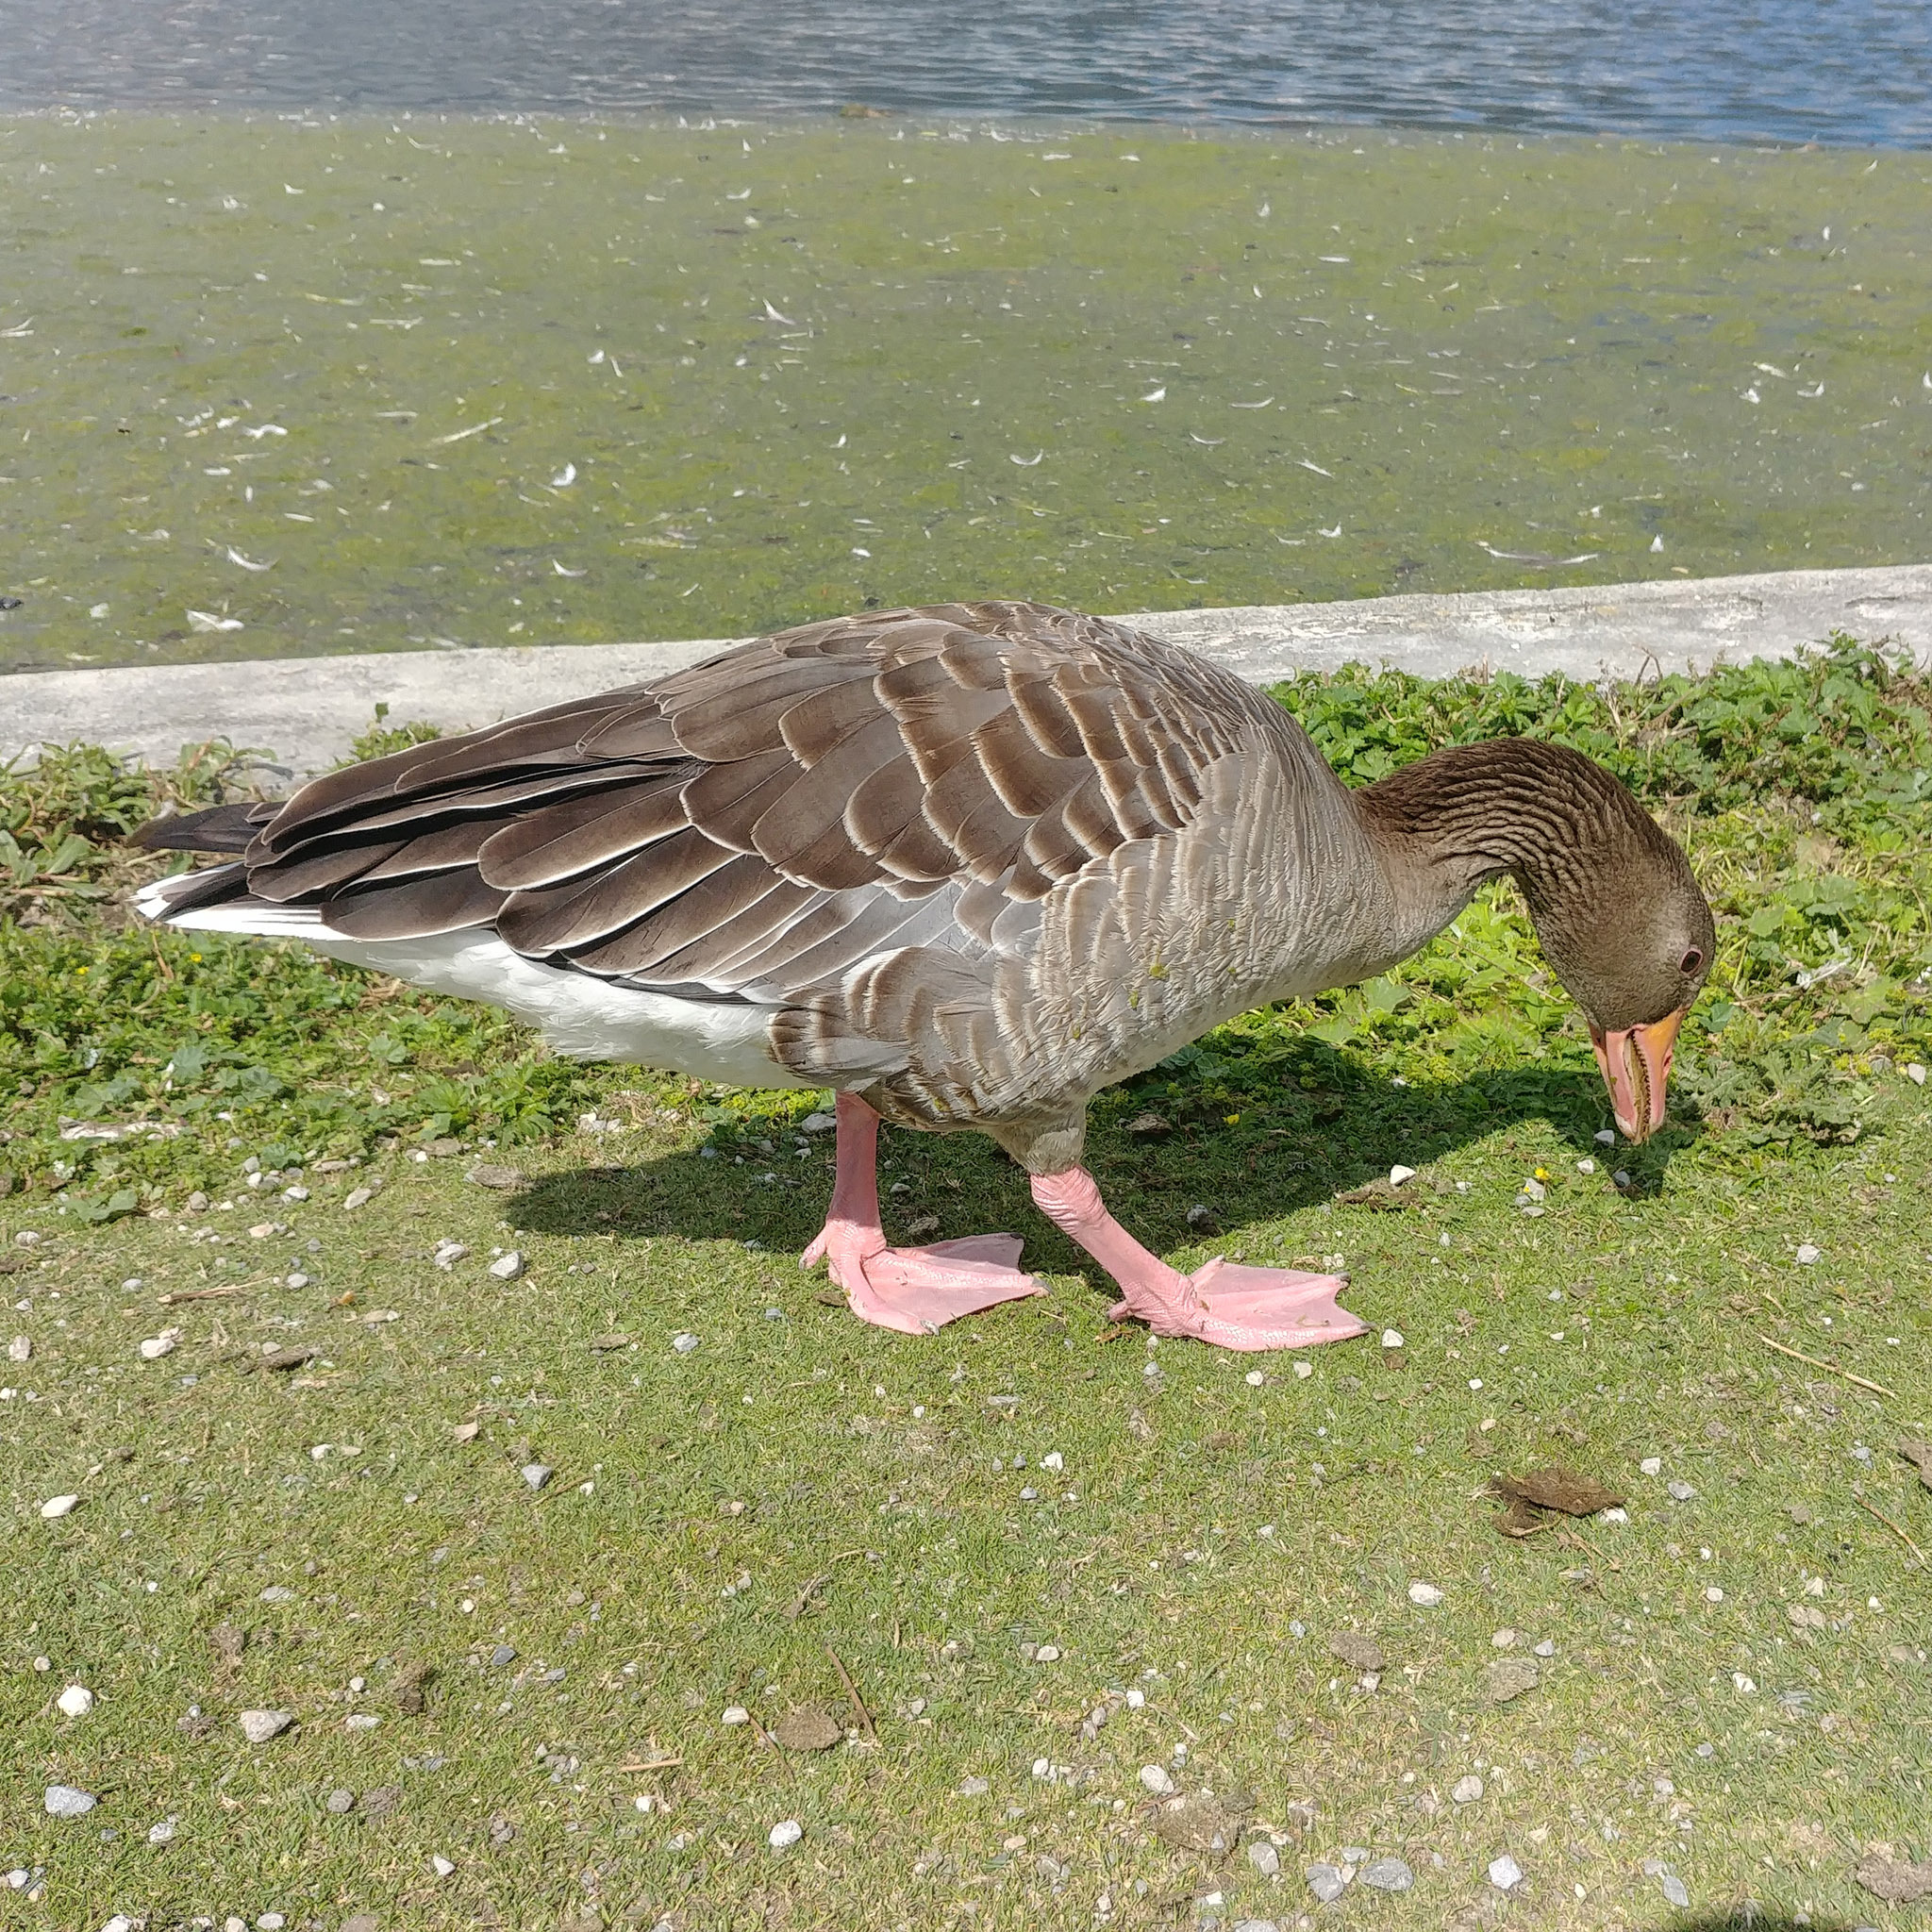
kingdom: Animalia
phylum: Chordata
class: Aves
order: Anseriformes
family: Anatidae
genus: Anser
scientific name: Anser anser
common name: Greylag goose
